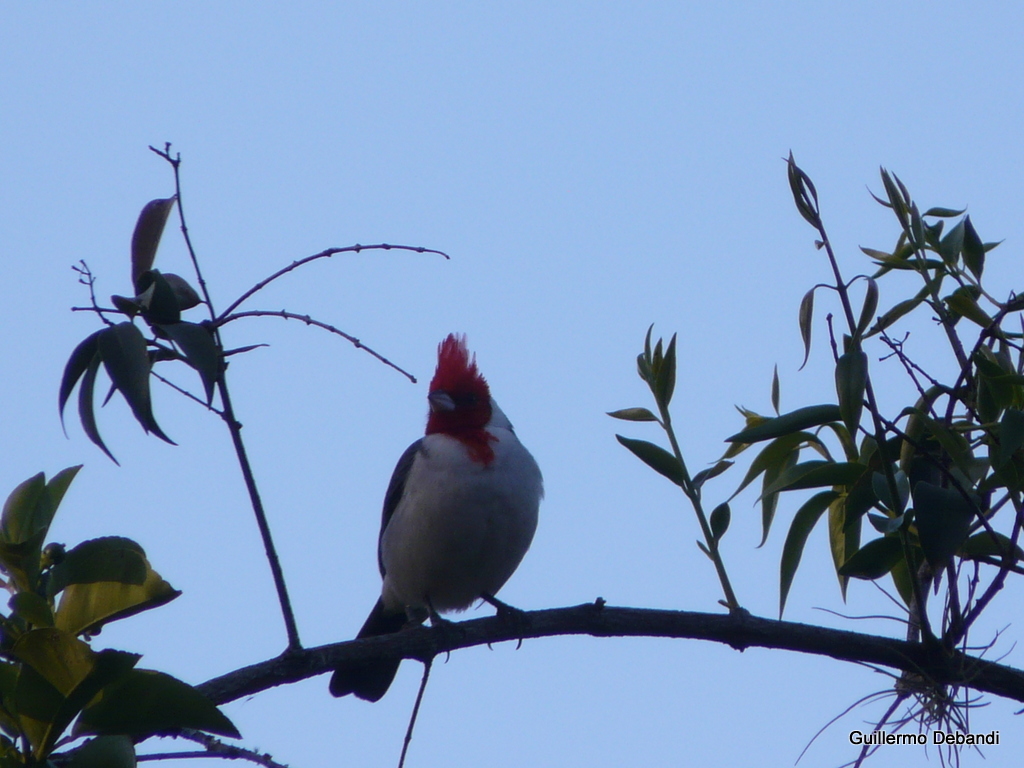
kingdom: Animalia
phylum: Chordata
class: Aves
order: Passeriformes
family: Thraupidae
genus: Paroaria
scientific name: Paroaria coronata
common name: Red-crested cardinal
